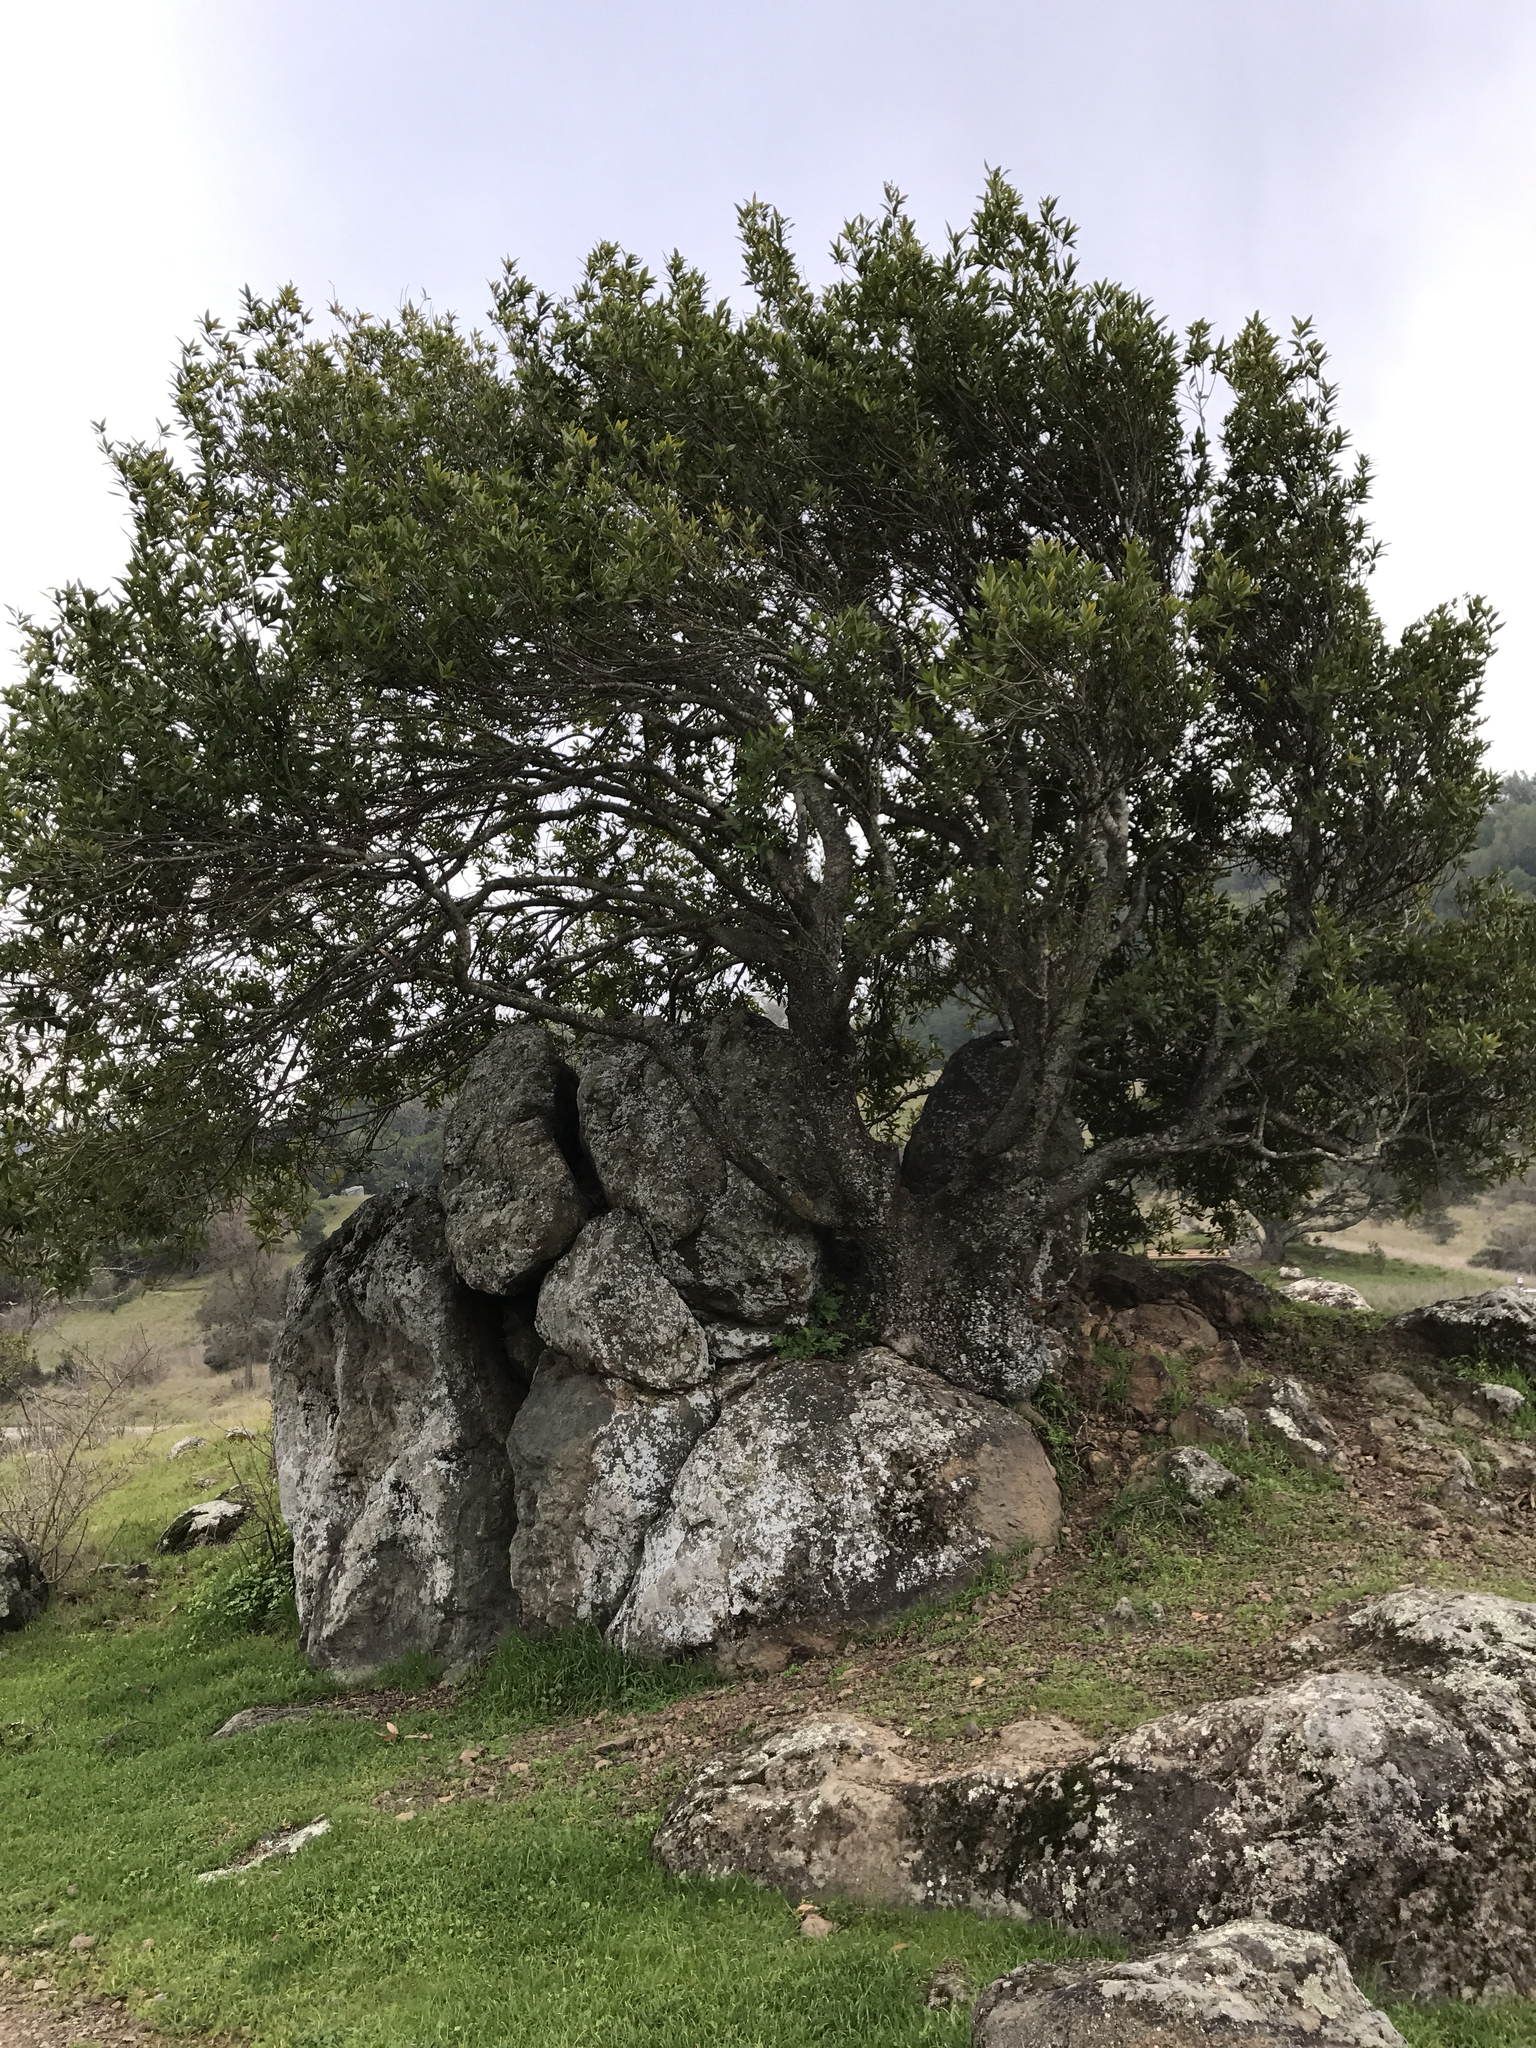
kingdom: Plantae
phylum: Tracheophyta
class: Magnoliopsida
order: Fagales
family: Fagaceae
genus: Quercus
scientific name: Quercus agrifolia
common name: California live oak
